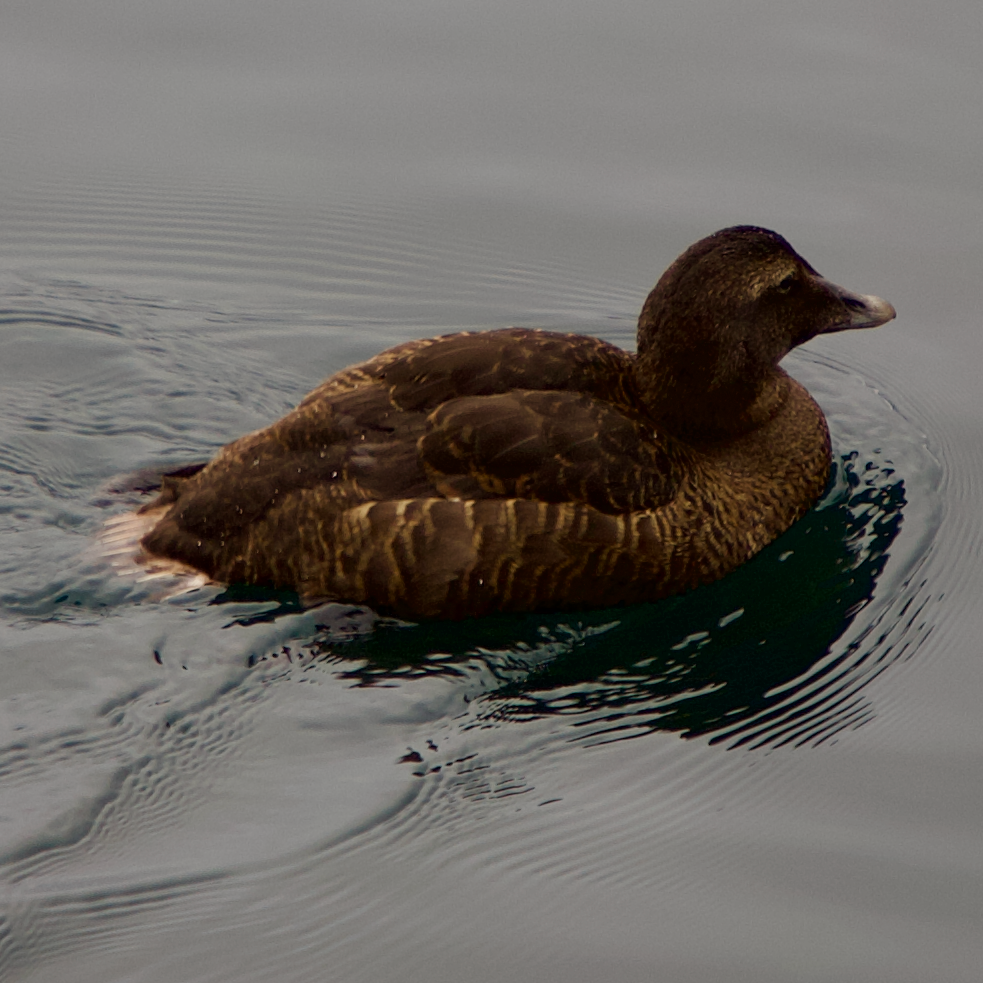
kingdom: Animalia
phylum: Chordata
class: Aves
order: Anseriformes
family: Anatidae
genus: Somateria
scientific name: Somateria mollissima
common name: Common eider
